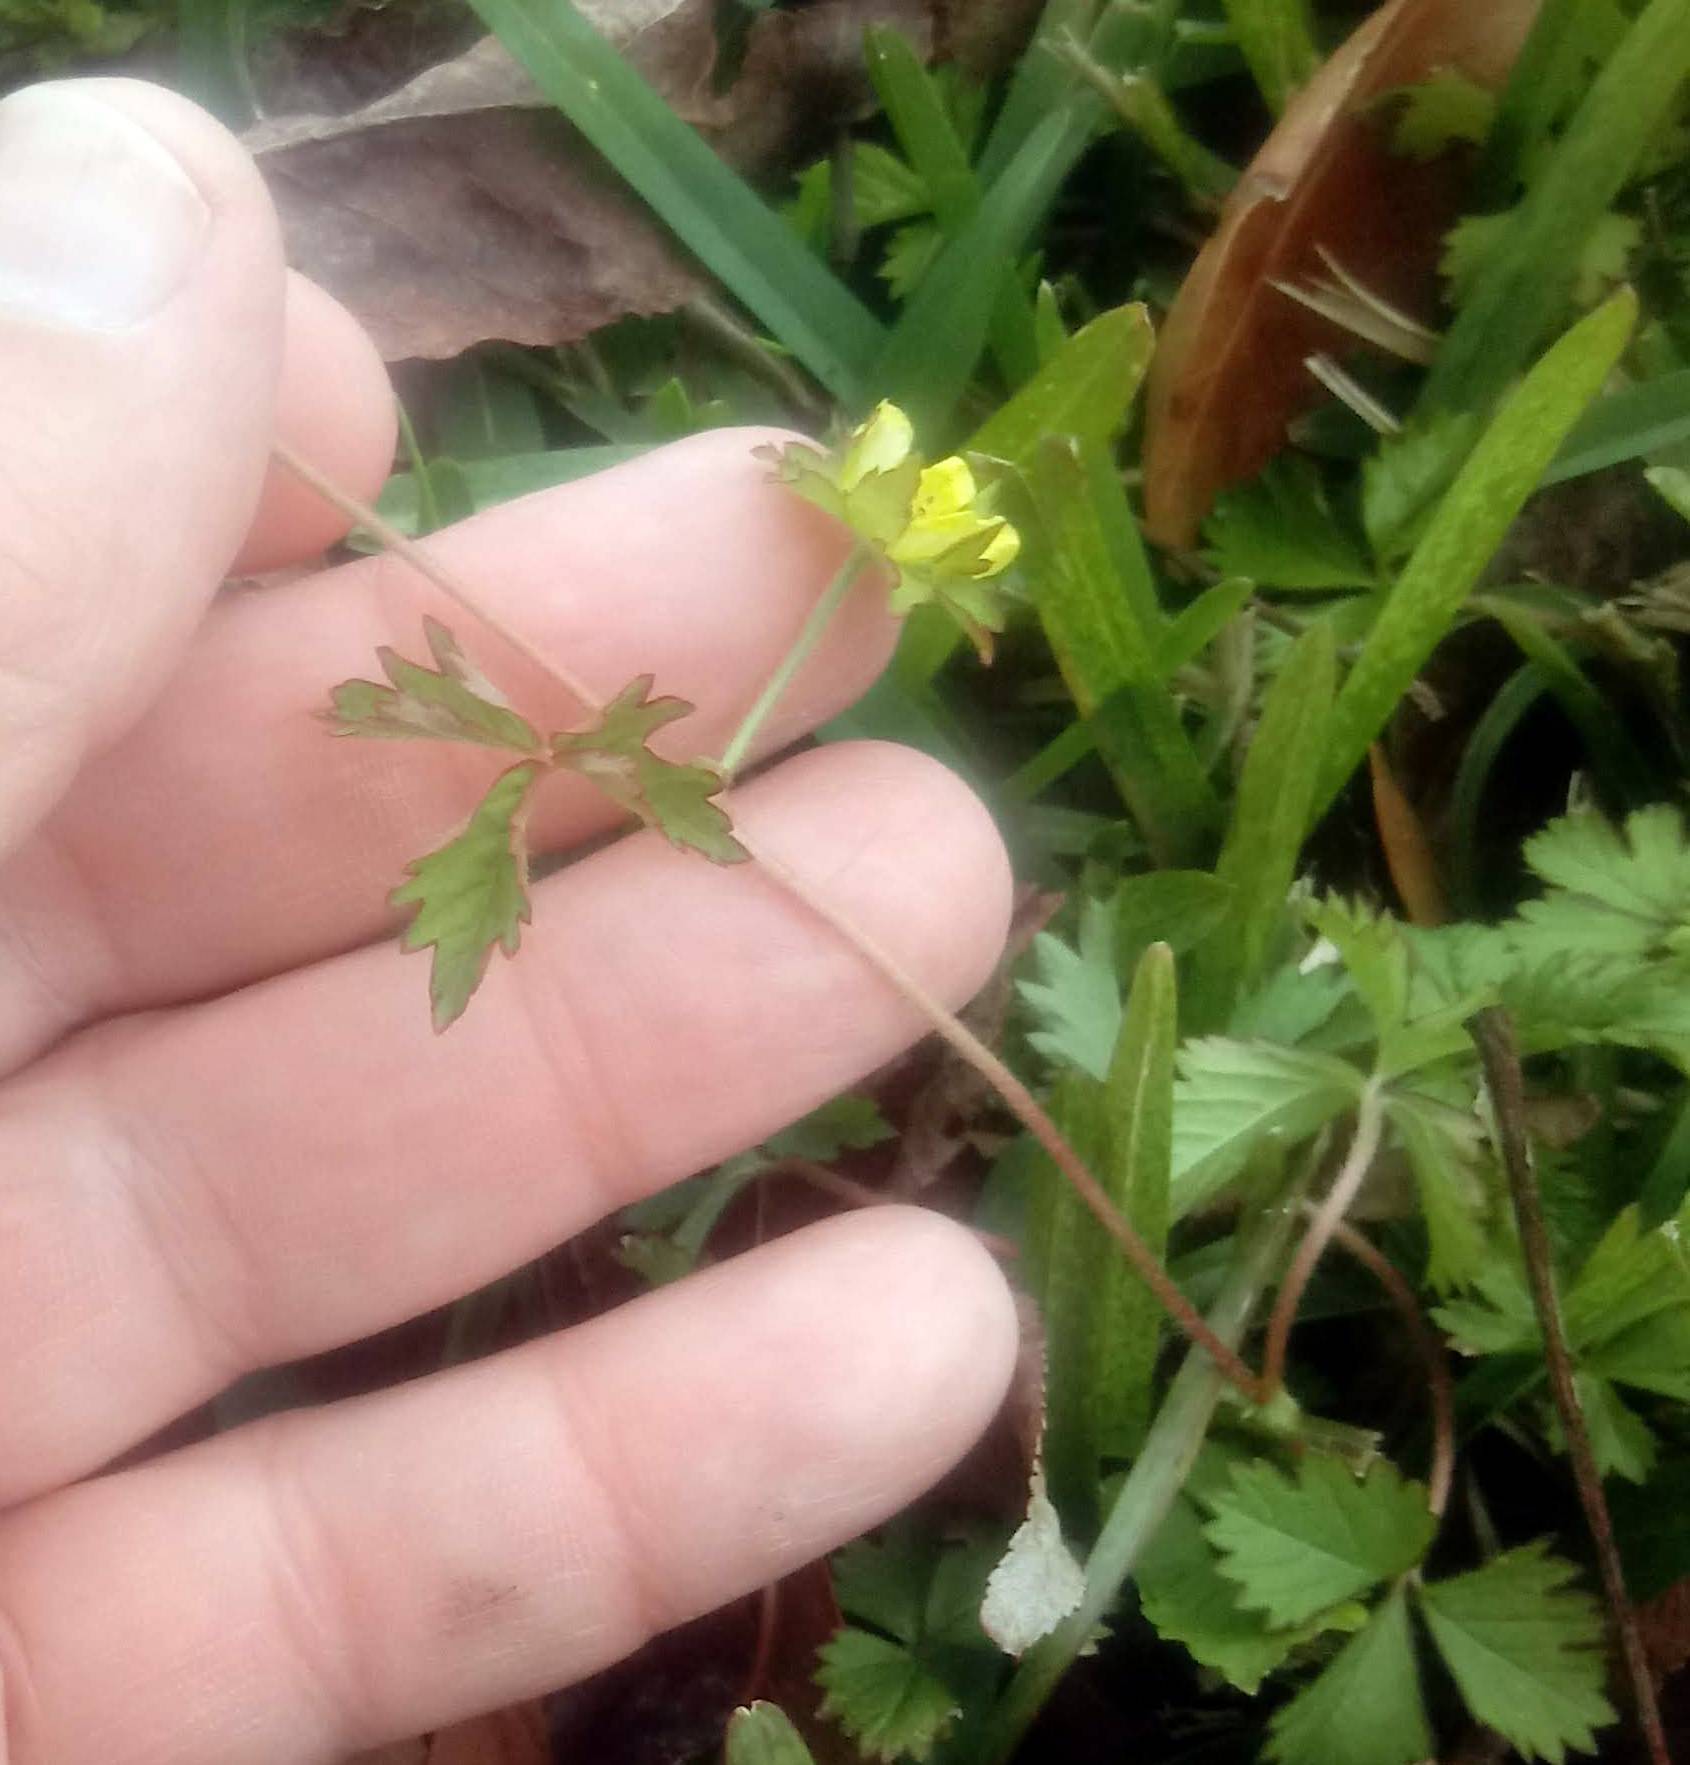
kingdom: Plantae
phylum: Tracheophyta
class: Magnoliopsida
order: Rosales
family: Rosaceae
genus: Potentilla
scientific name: Potentilla indica
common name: Yellow-flowered strawberry
